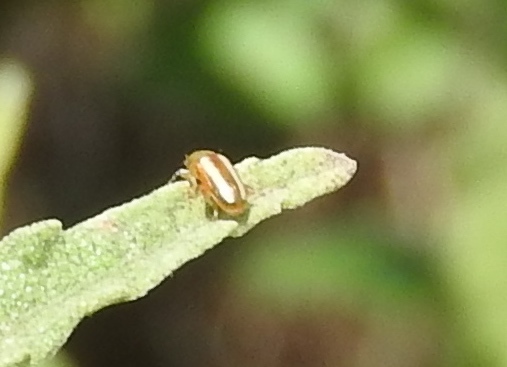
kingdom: Animalia
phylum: Arthropoda
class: Insecta
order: Coleoptera
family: Chrysomelidae
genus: Systena
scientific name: Systena
